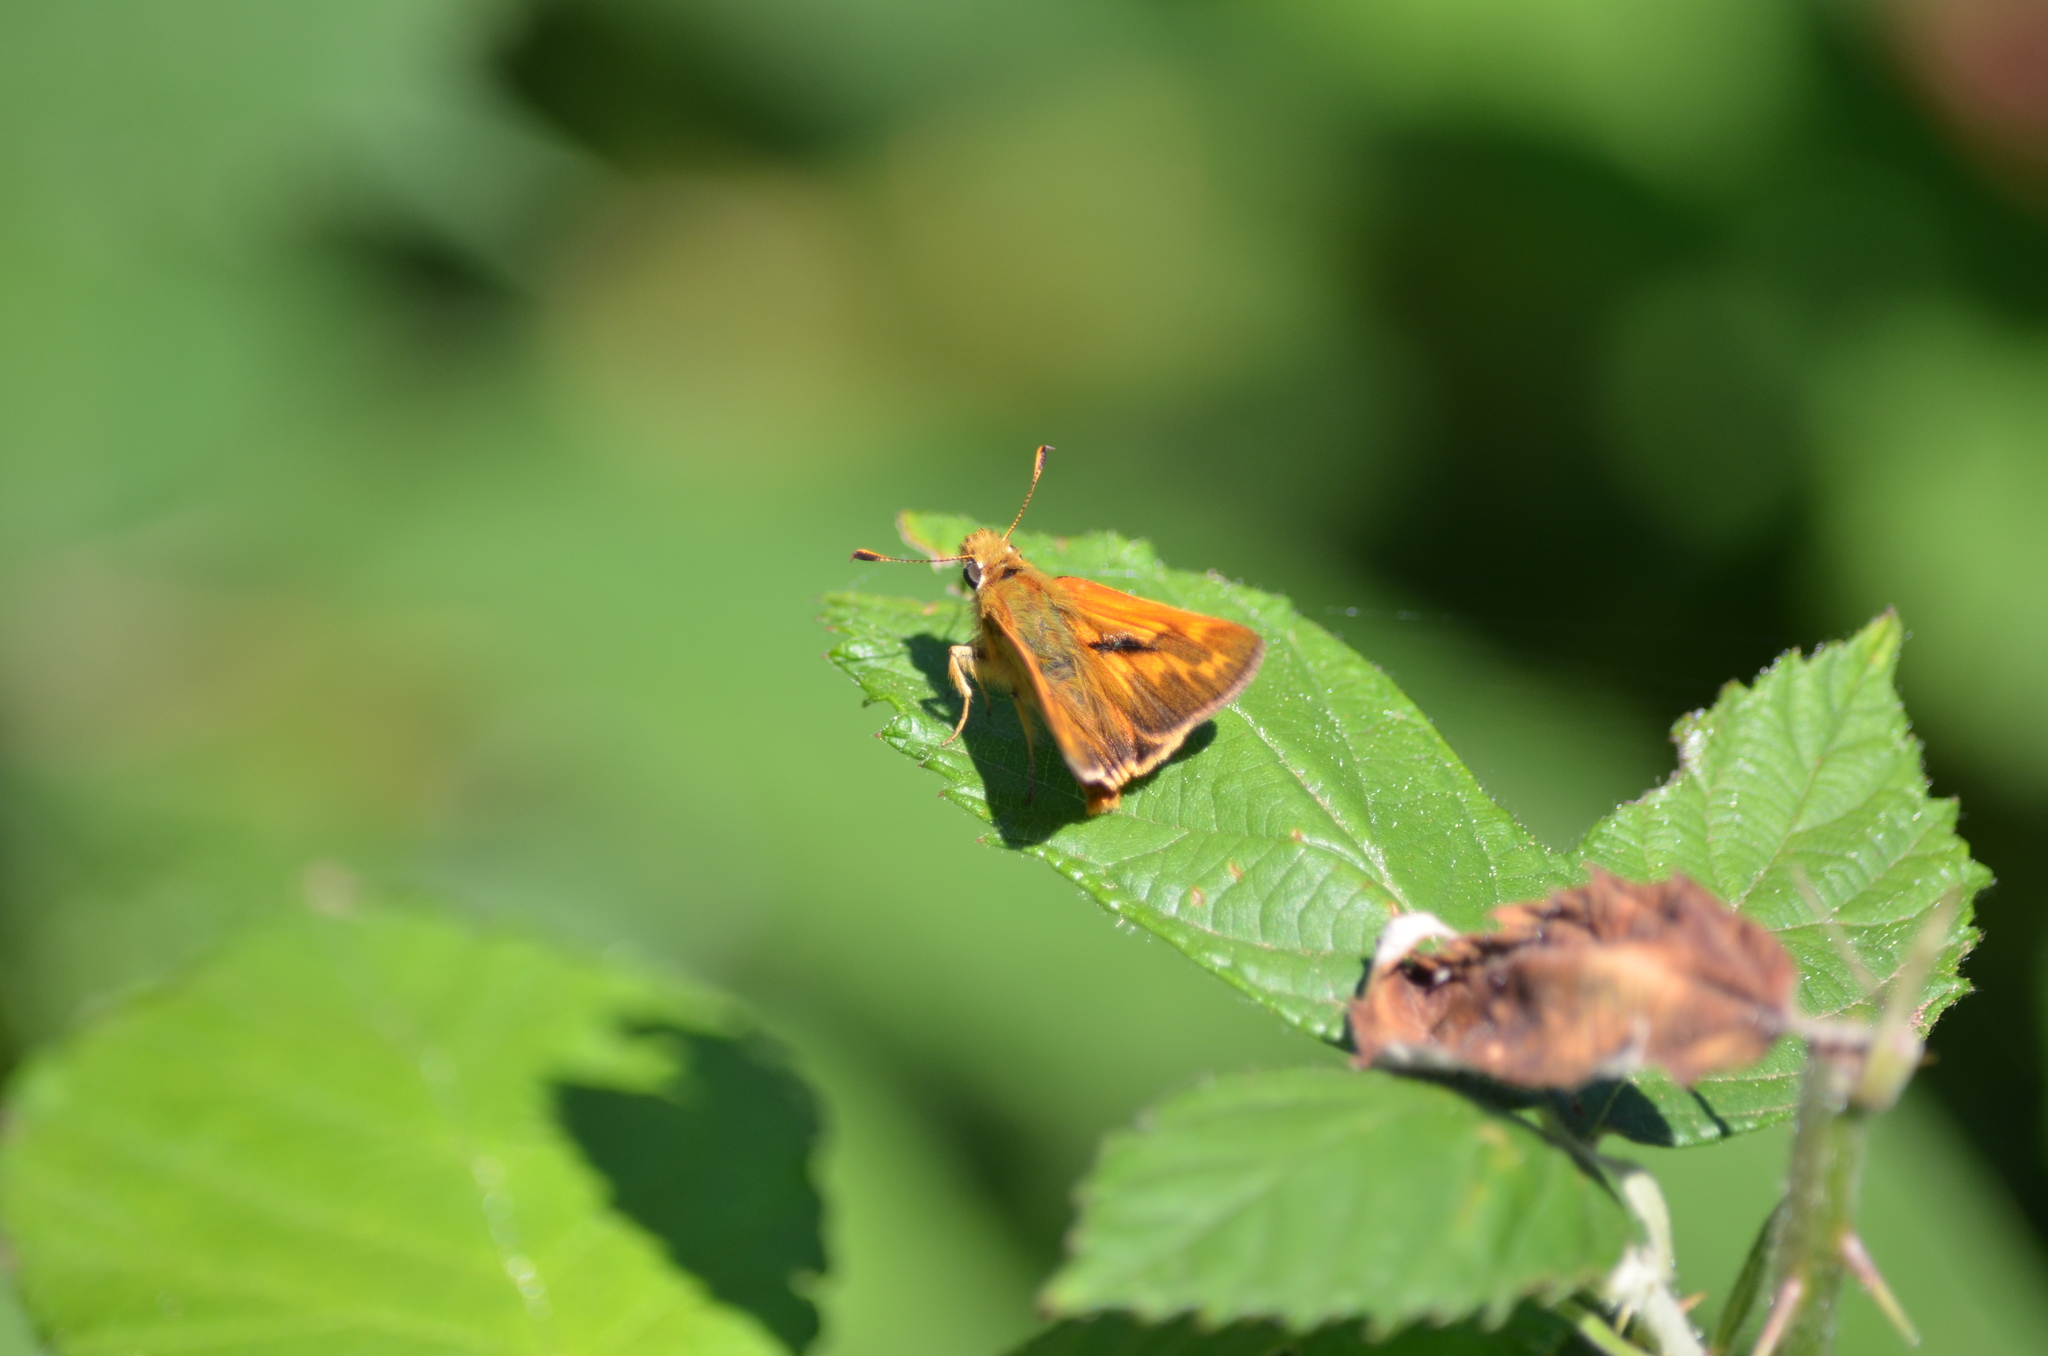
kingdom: Animalia
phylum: Arthropoda
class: Insecta
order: Lepidoptera
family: Hesperiidae
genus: Ochlodes
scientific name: Ochlodes sylvanoides
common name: Woodland skipper
